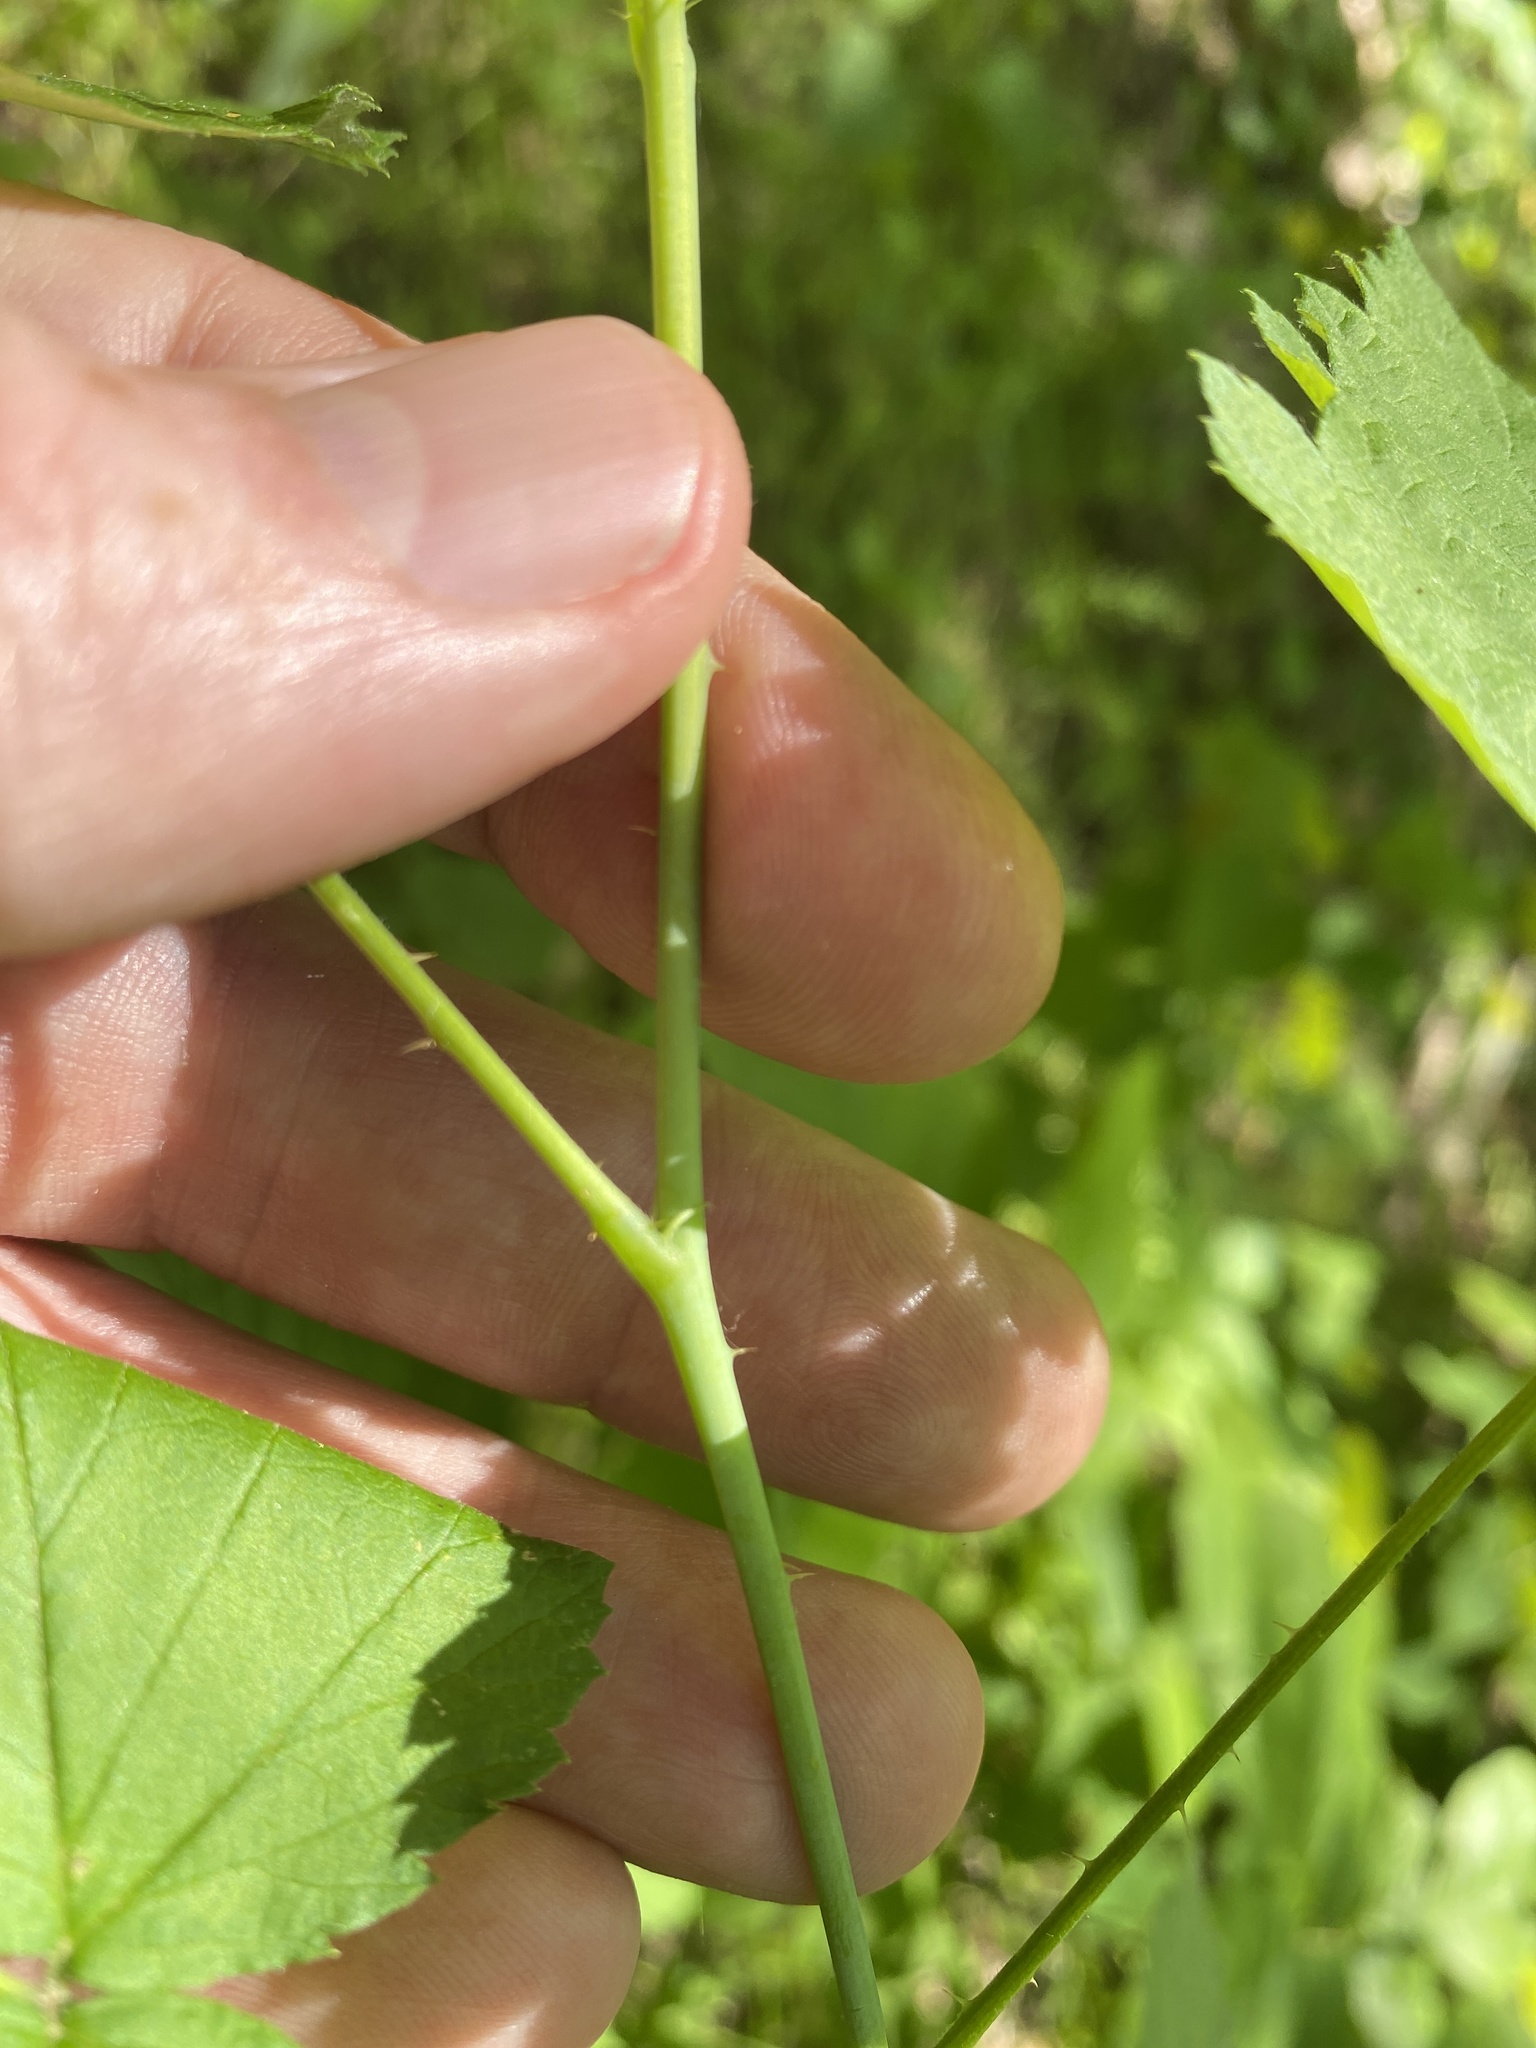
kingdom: Plantae
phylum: Tracheophyta
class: Magnoliopsida
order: Rosales
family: Rosaceae
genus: Rubus
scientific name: Rubus occidentalis
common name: Black raspberry
